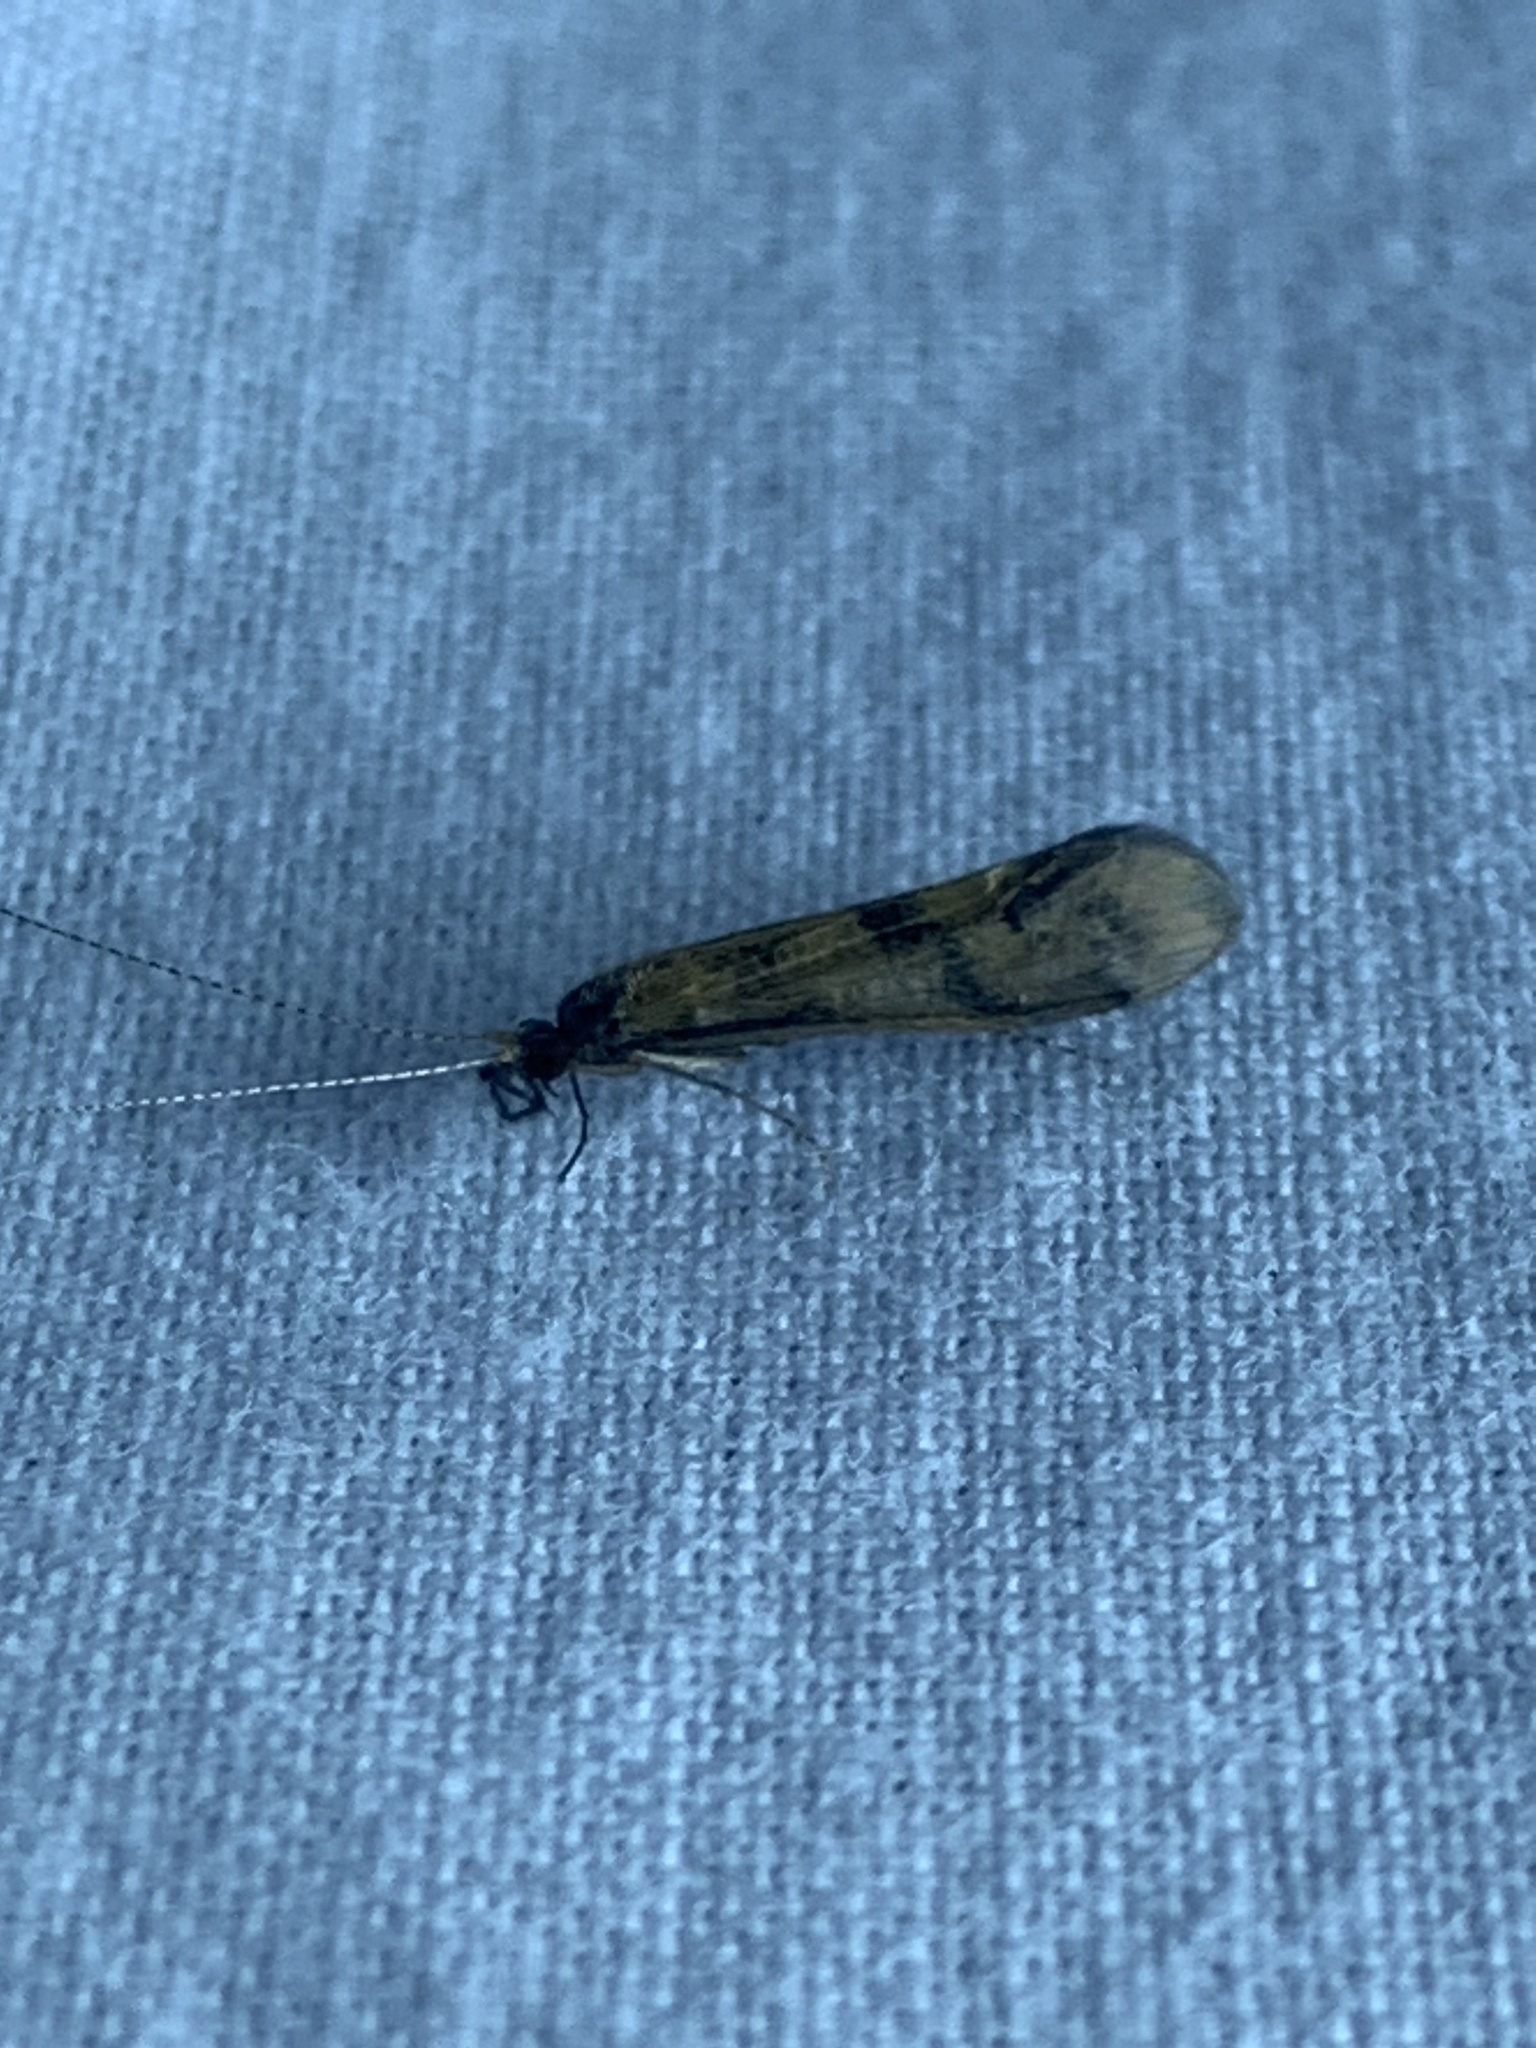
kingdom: Animalia
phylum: Arthropoda
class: Insecta
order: Trichoptera
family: Leptoceridae
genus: Mystacides
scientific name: Mystacides longicornis
